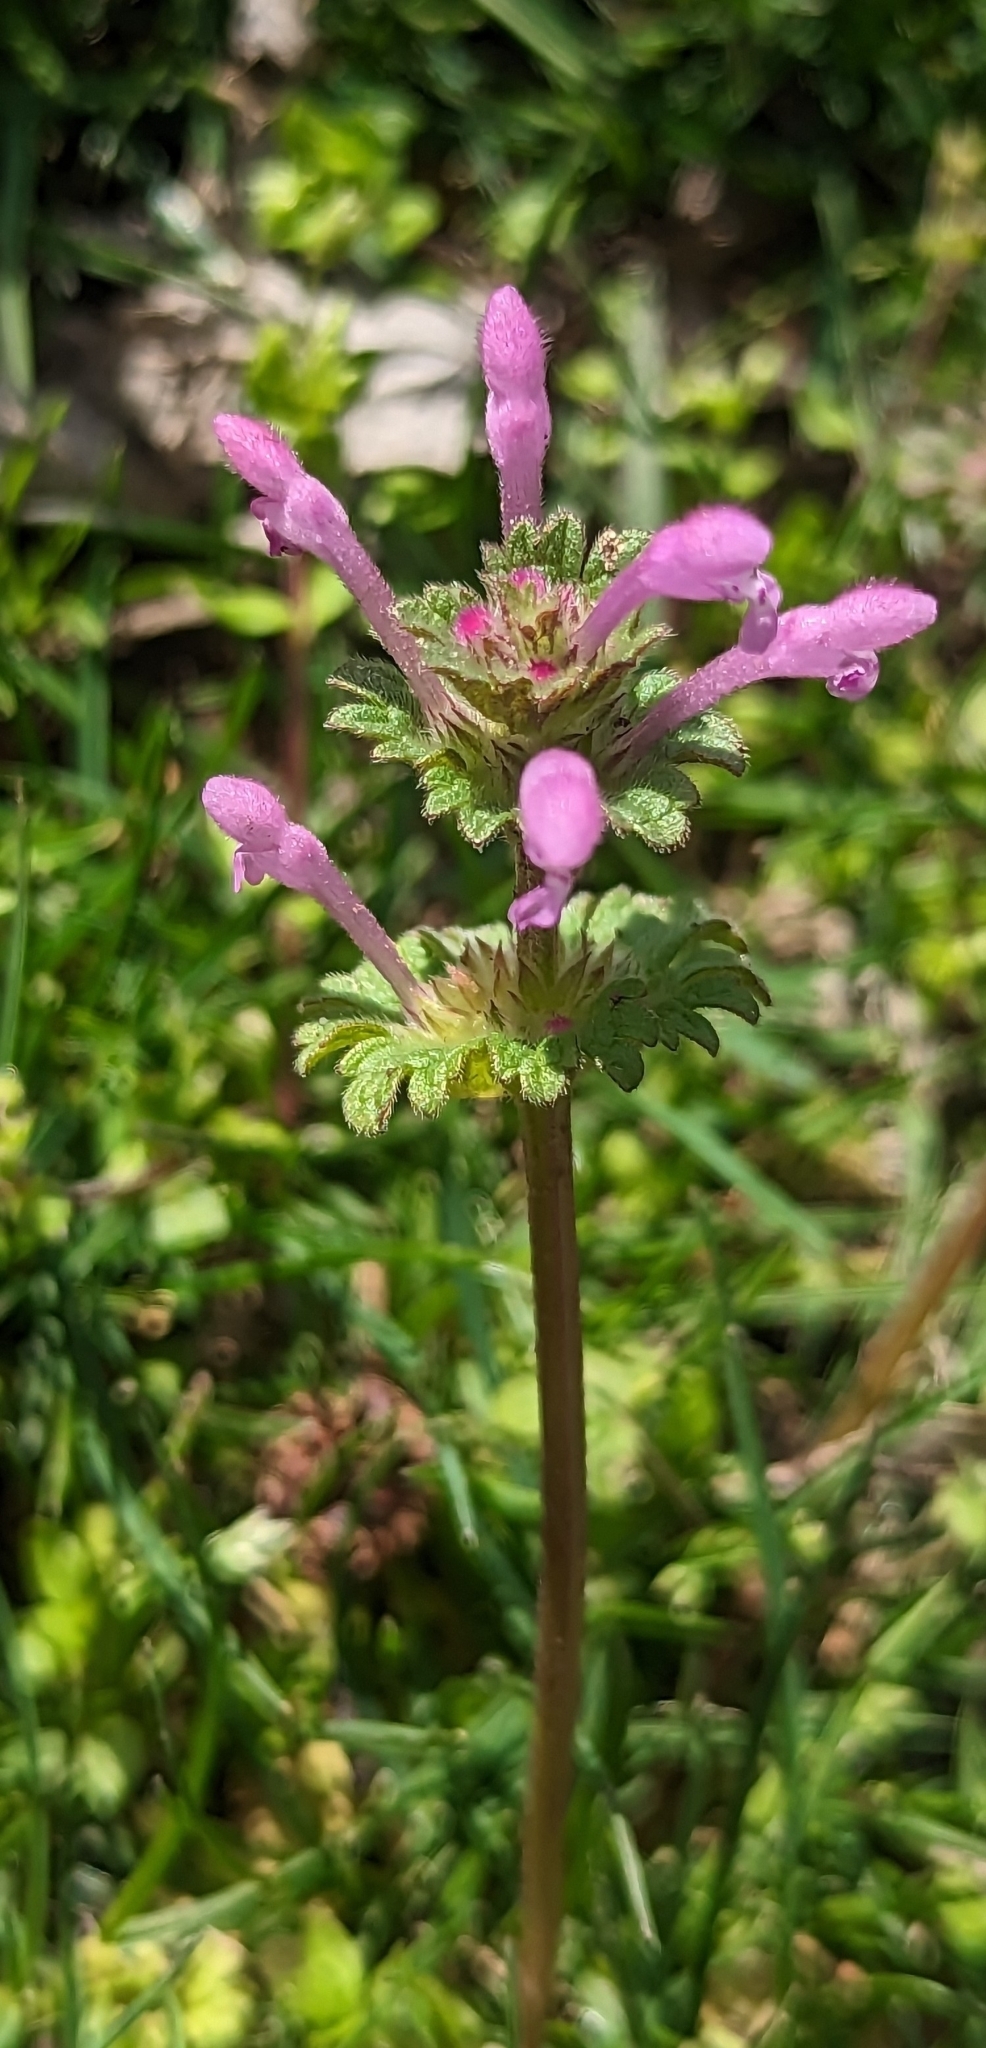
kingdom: Plantae
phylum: Tracheophyta
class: Magnoliopsida
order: Lamiales
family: Lamiaceae
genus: Lamium
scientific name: Lamium amplexicaule
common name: Henbit dead-nettle
